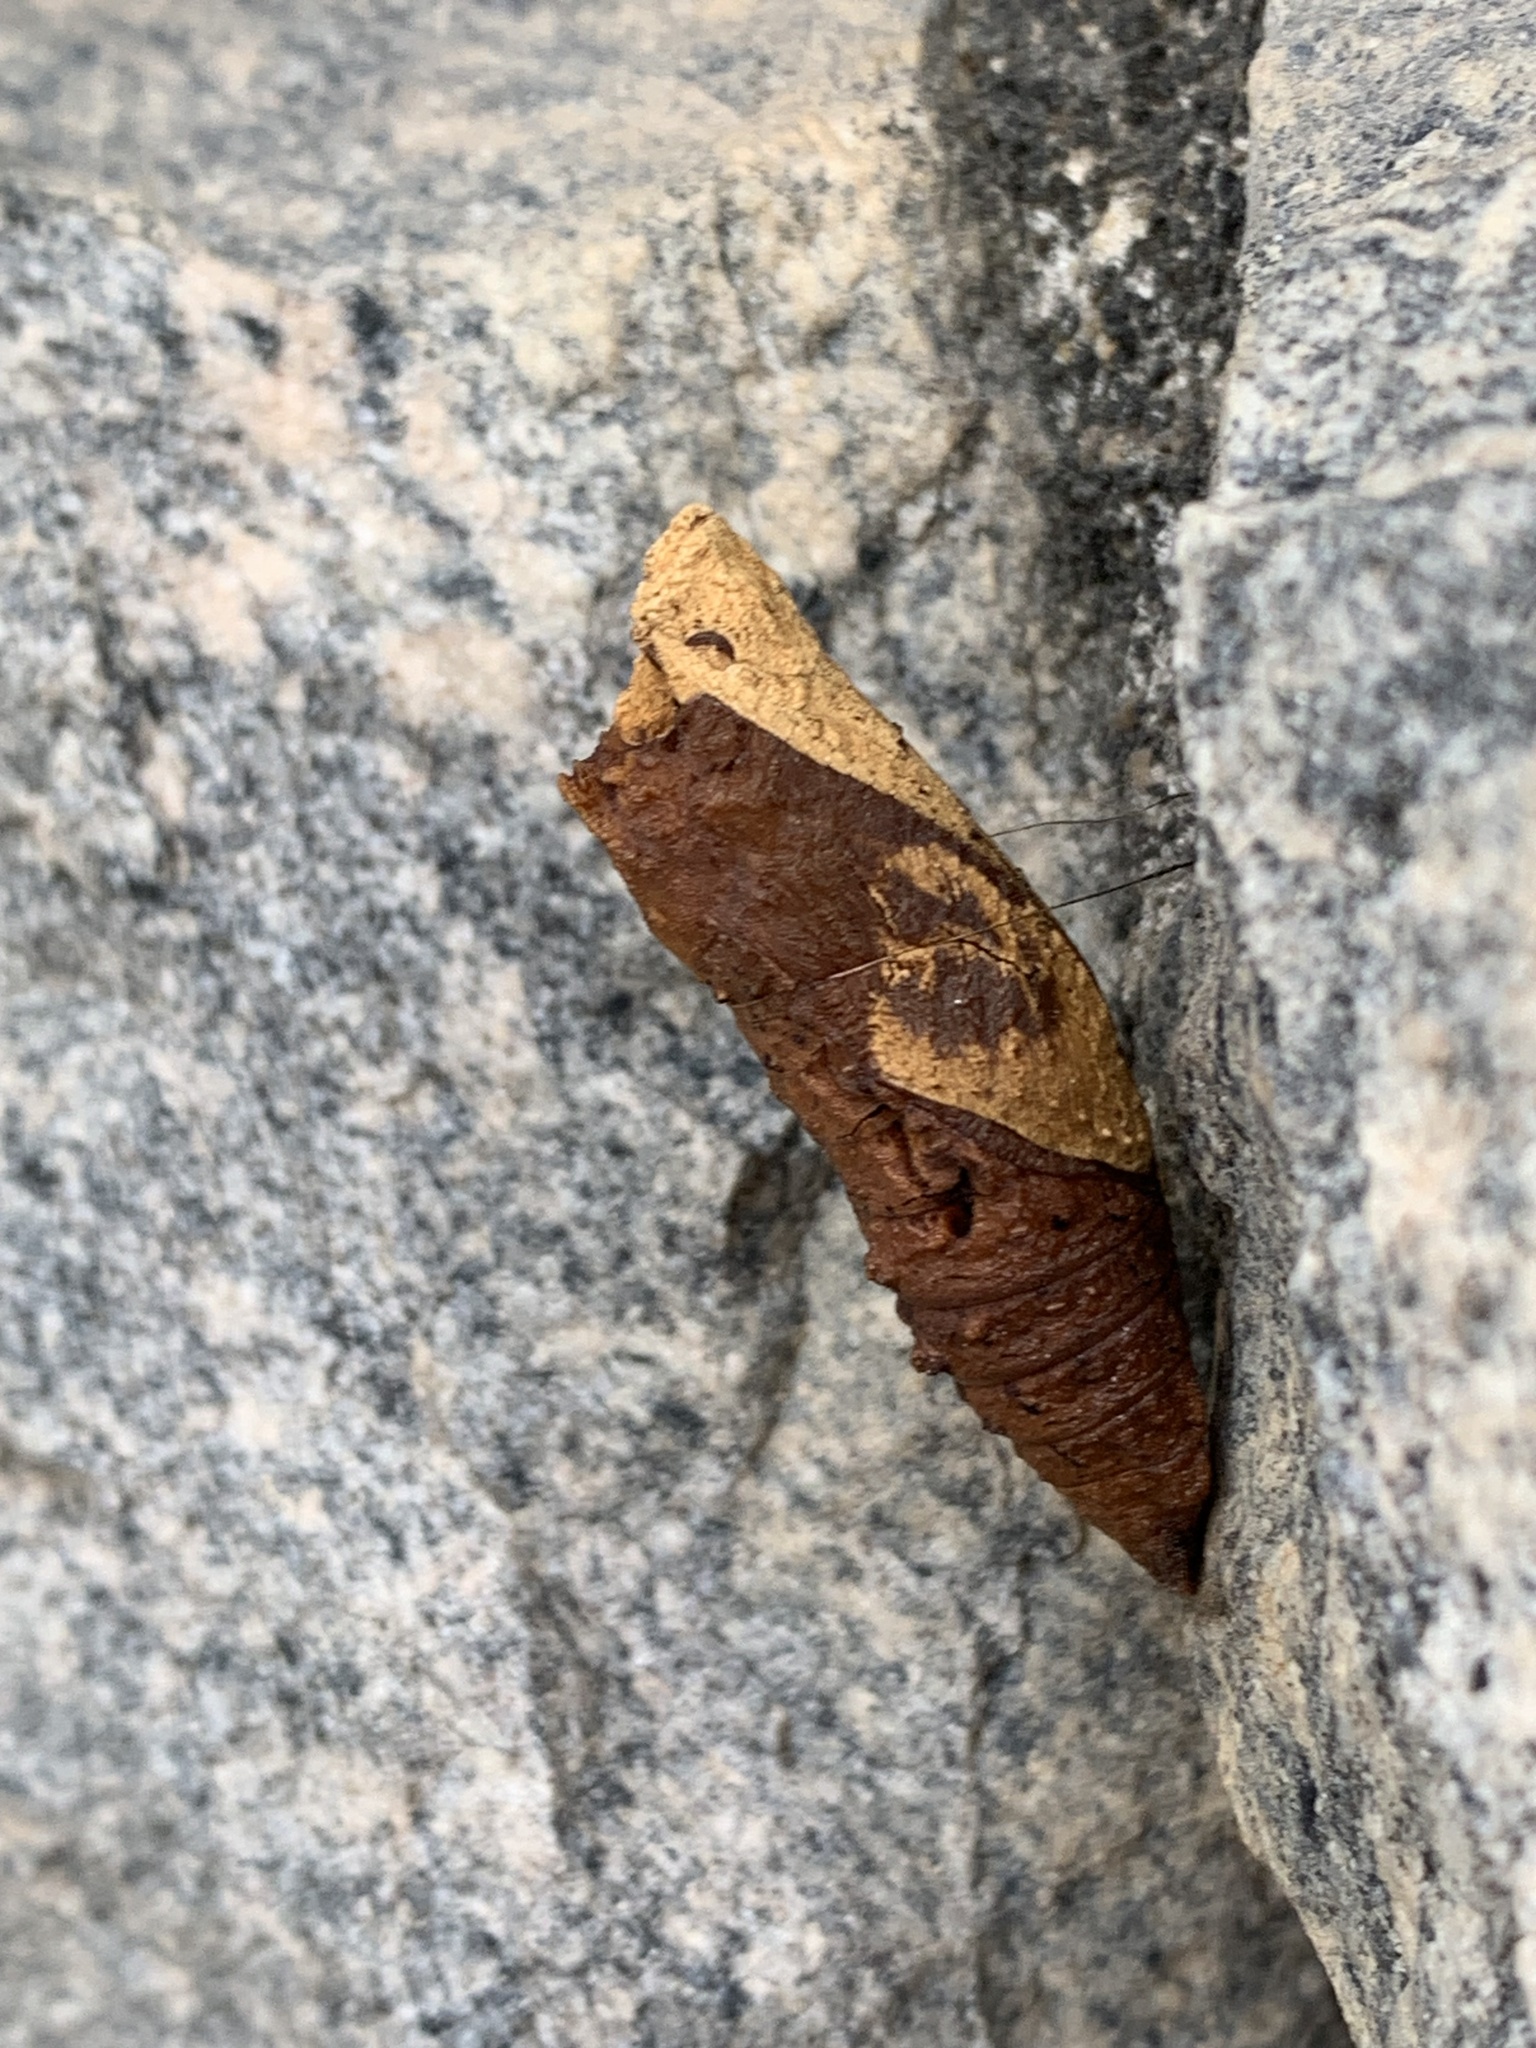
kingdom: Animalia
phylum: Arthropoda
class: Insecta
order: Lepidoptera
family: Papilionidae
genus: Papilio
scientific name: Papilio anchisiades
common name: Idaes swallowtail
